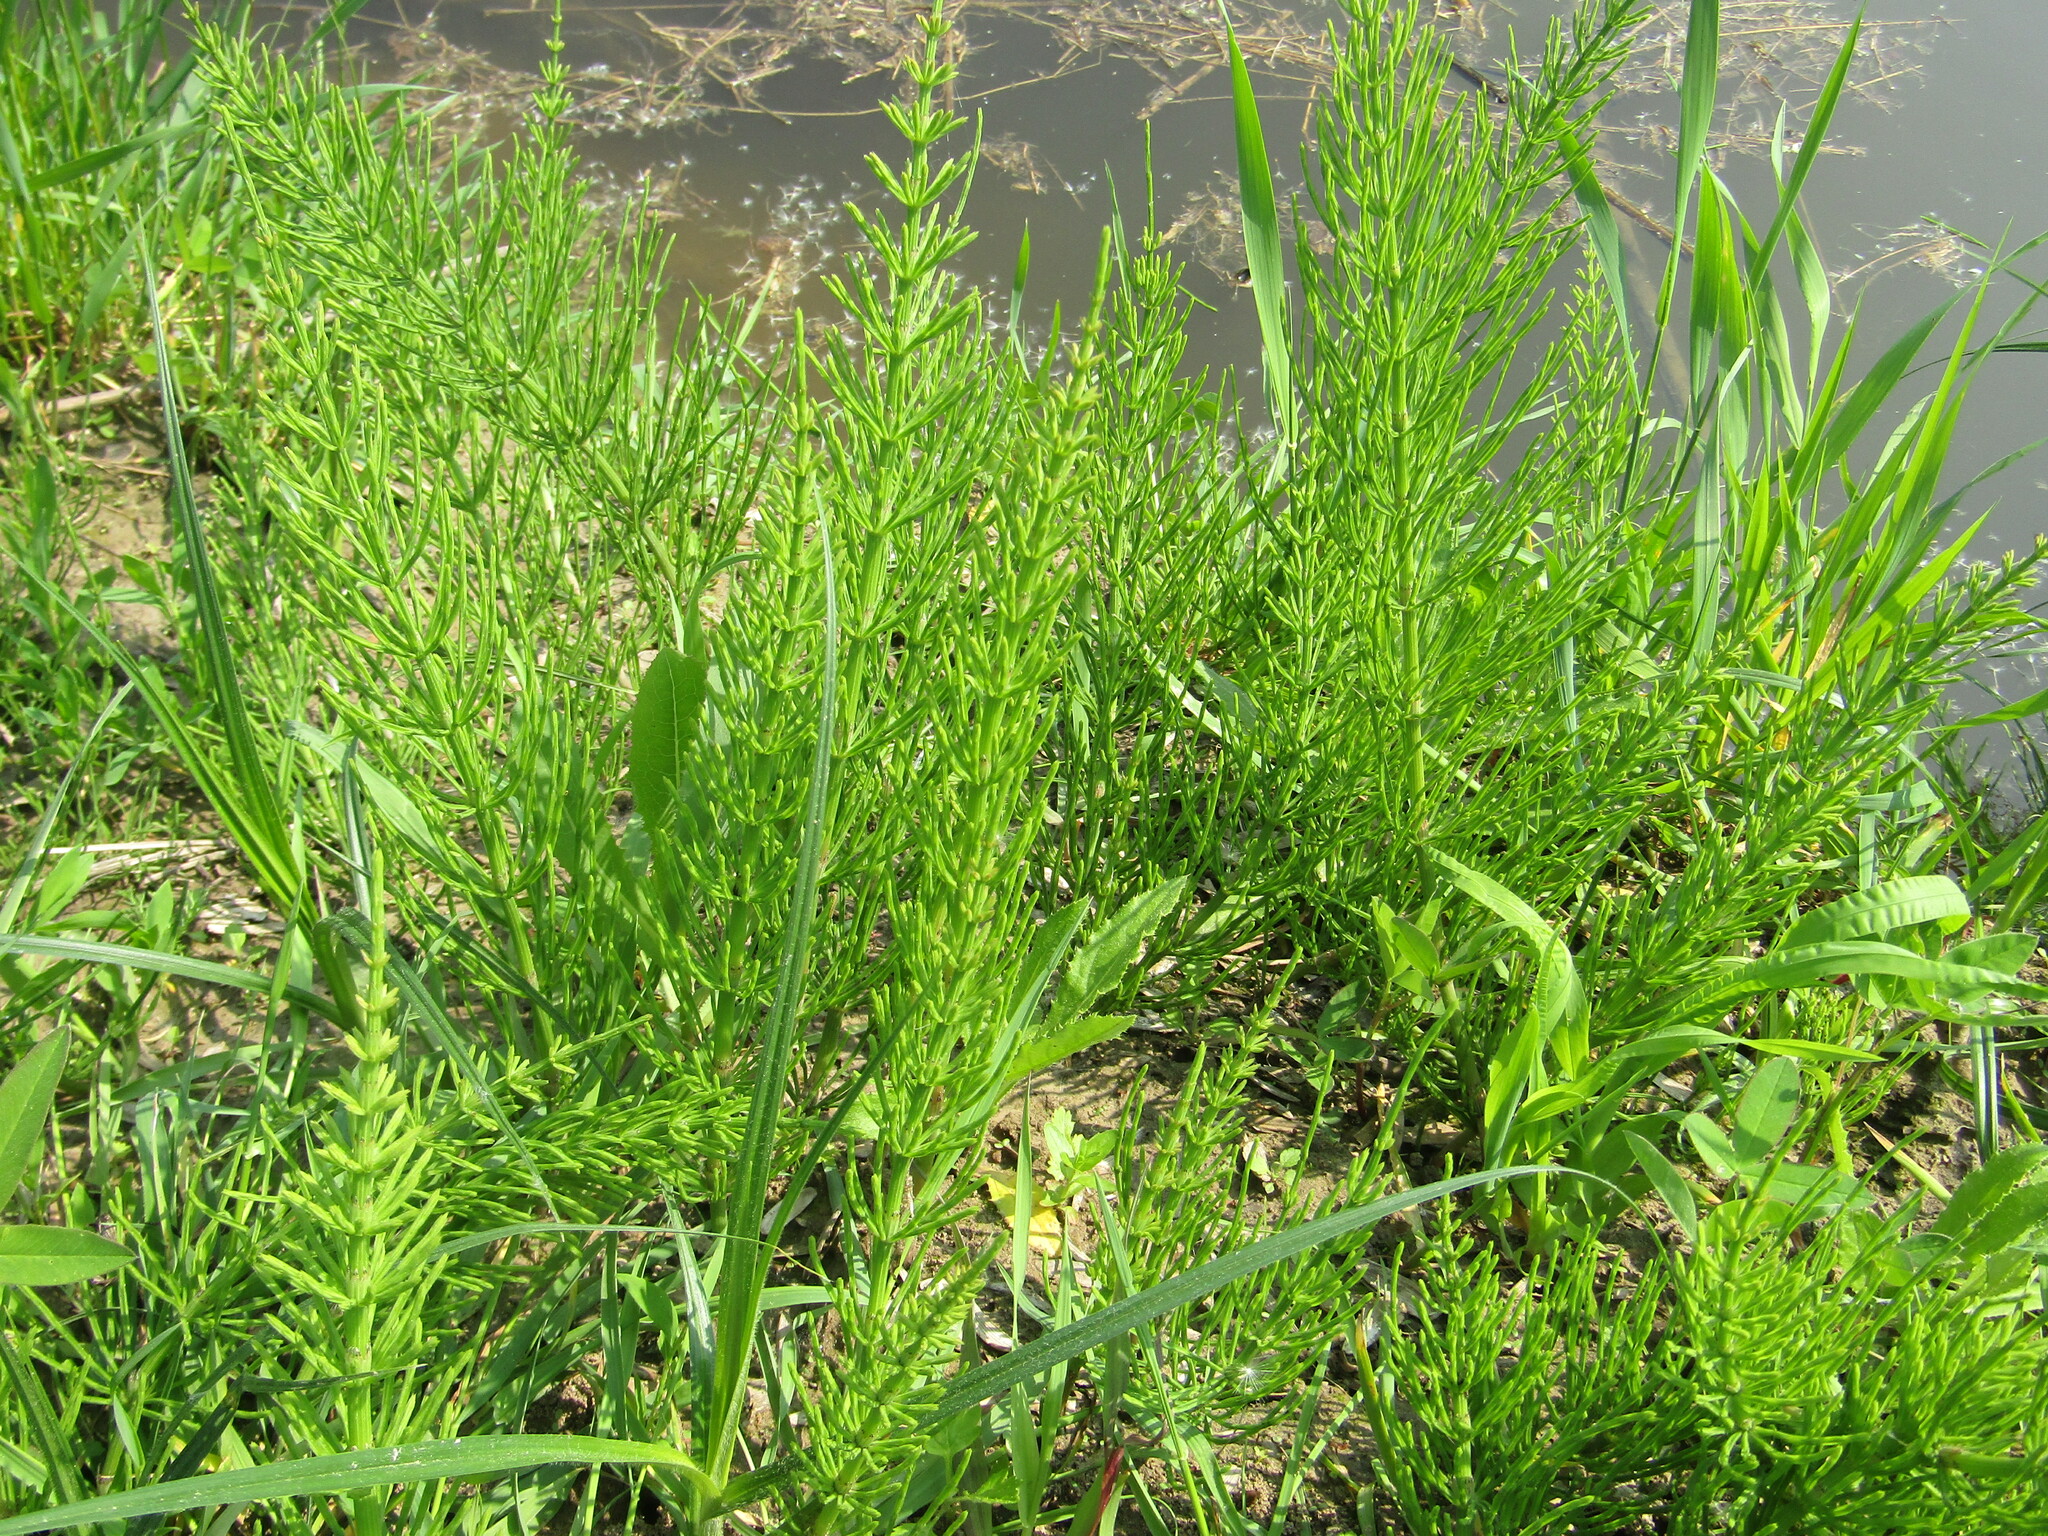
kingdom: Plantae
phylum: Tracheophyta
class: Polypodiopsida
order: Equisetales
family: Equisetaceae
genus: Equisetum
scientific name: Equisetum arvense
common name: Field horsetail
